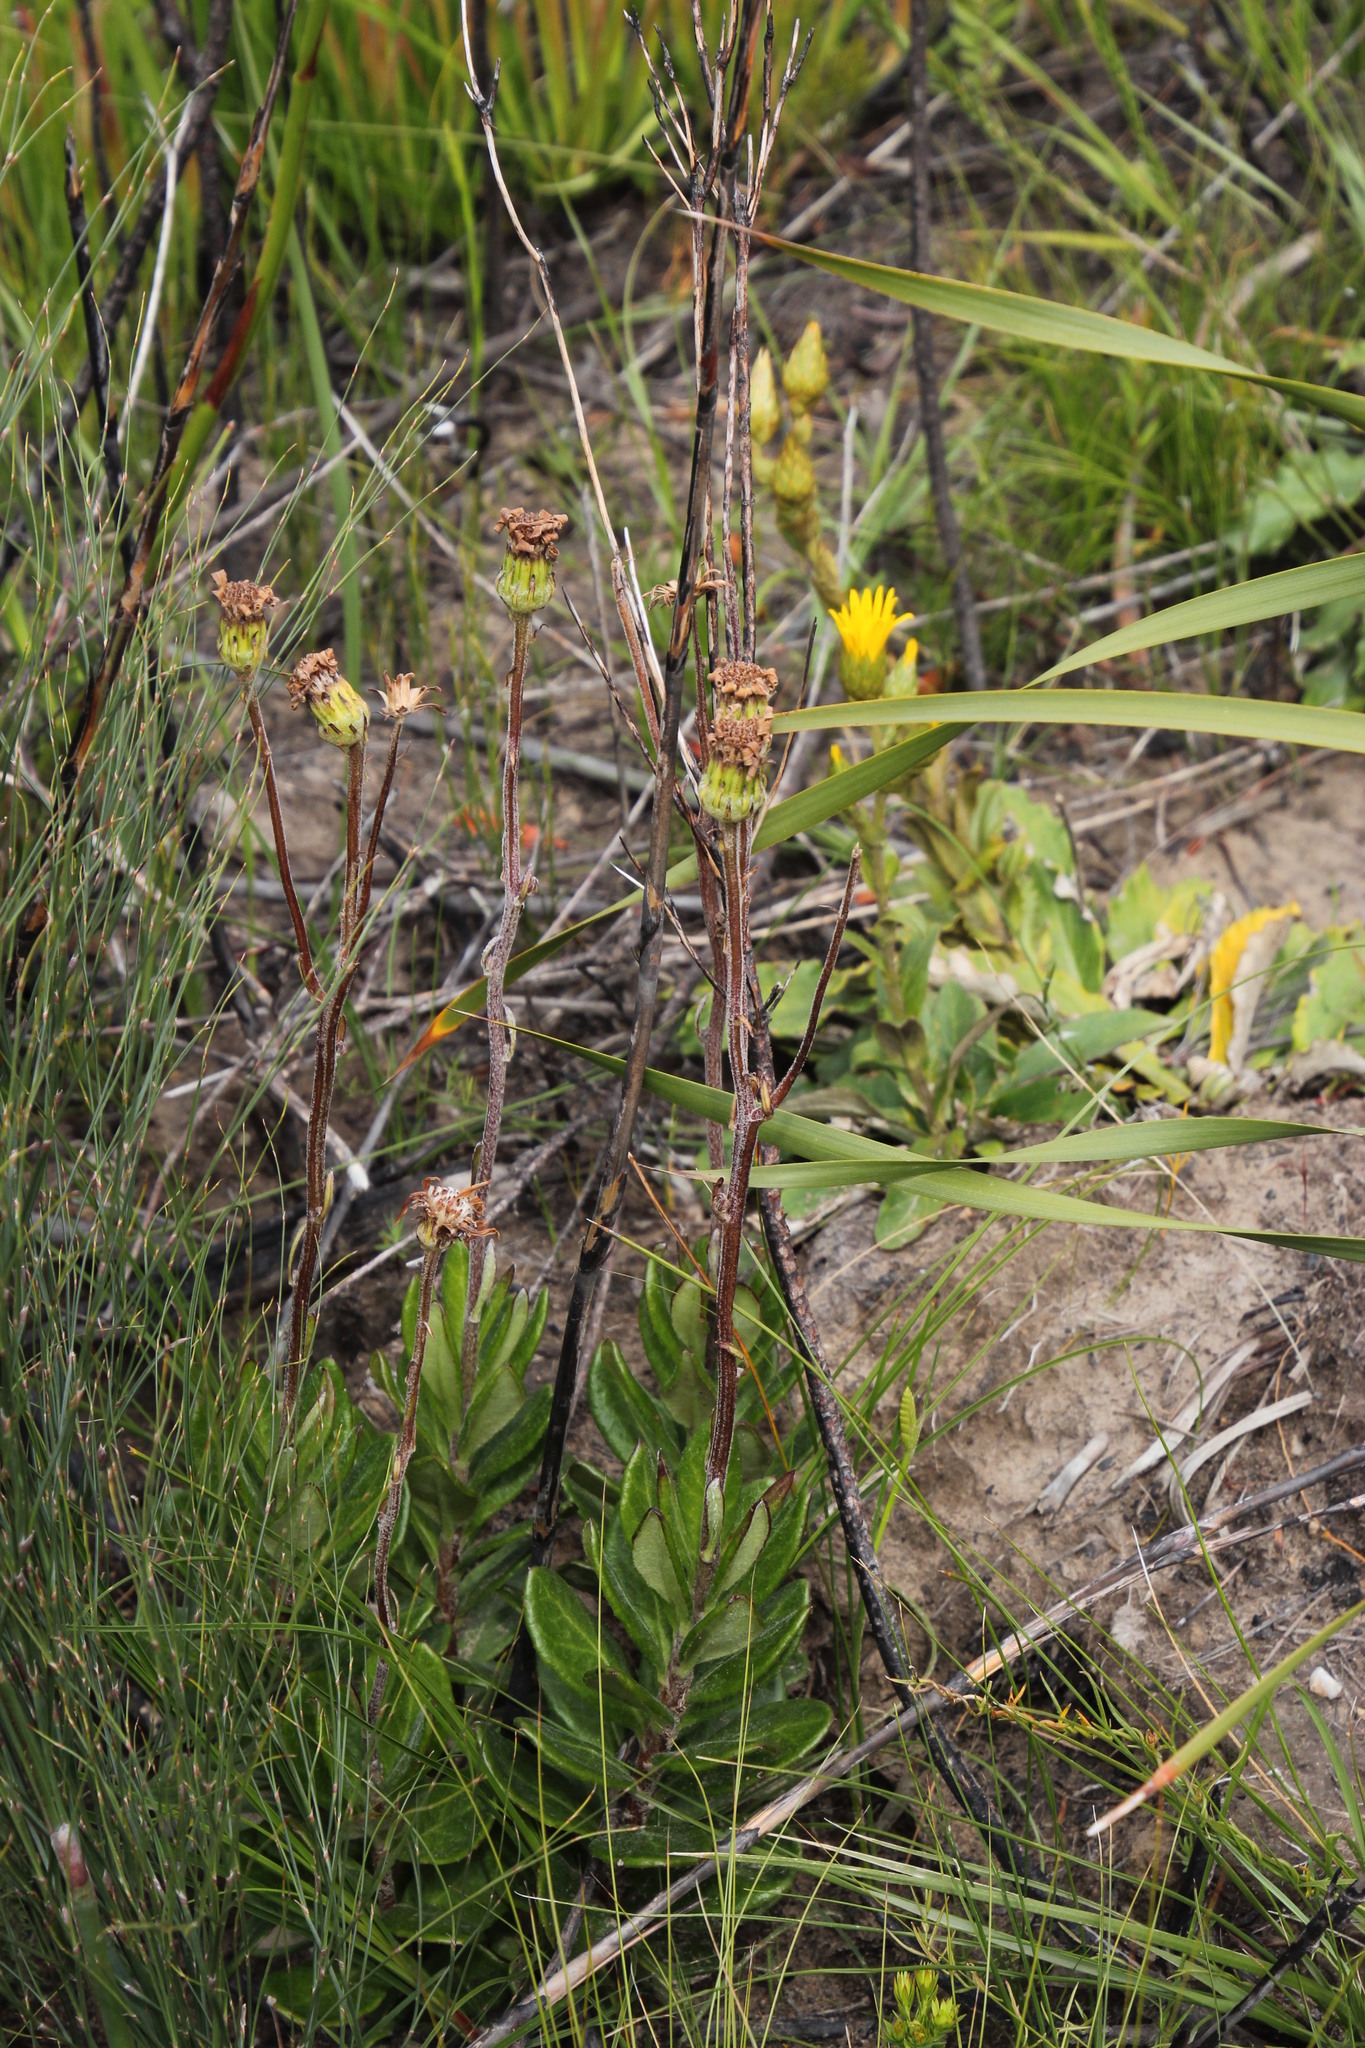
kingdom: Plantae
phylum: Tracheophyta
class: Magnoliopsida
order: Asterales
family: Asteraceae
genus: Capelio
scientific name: Capelio caledonica
